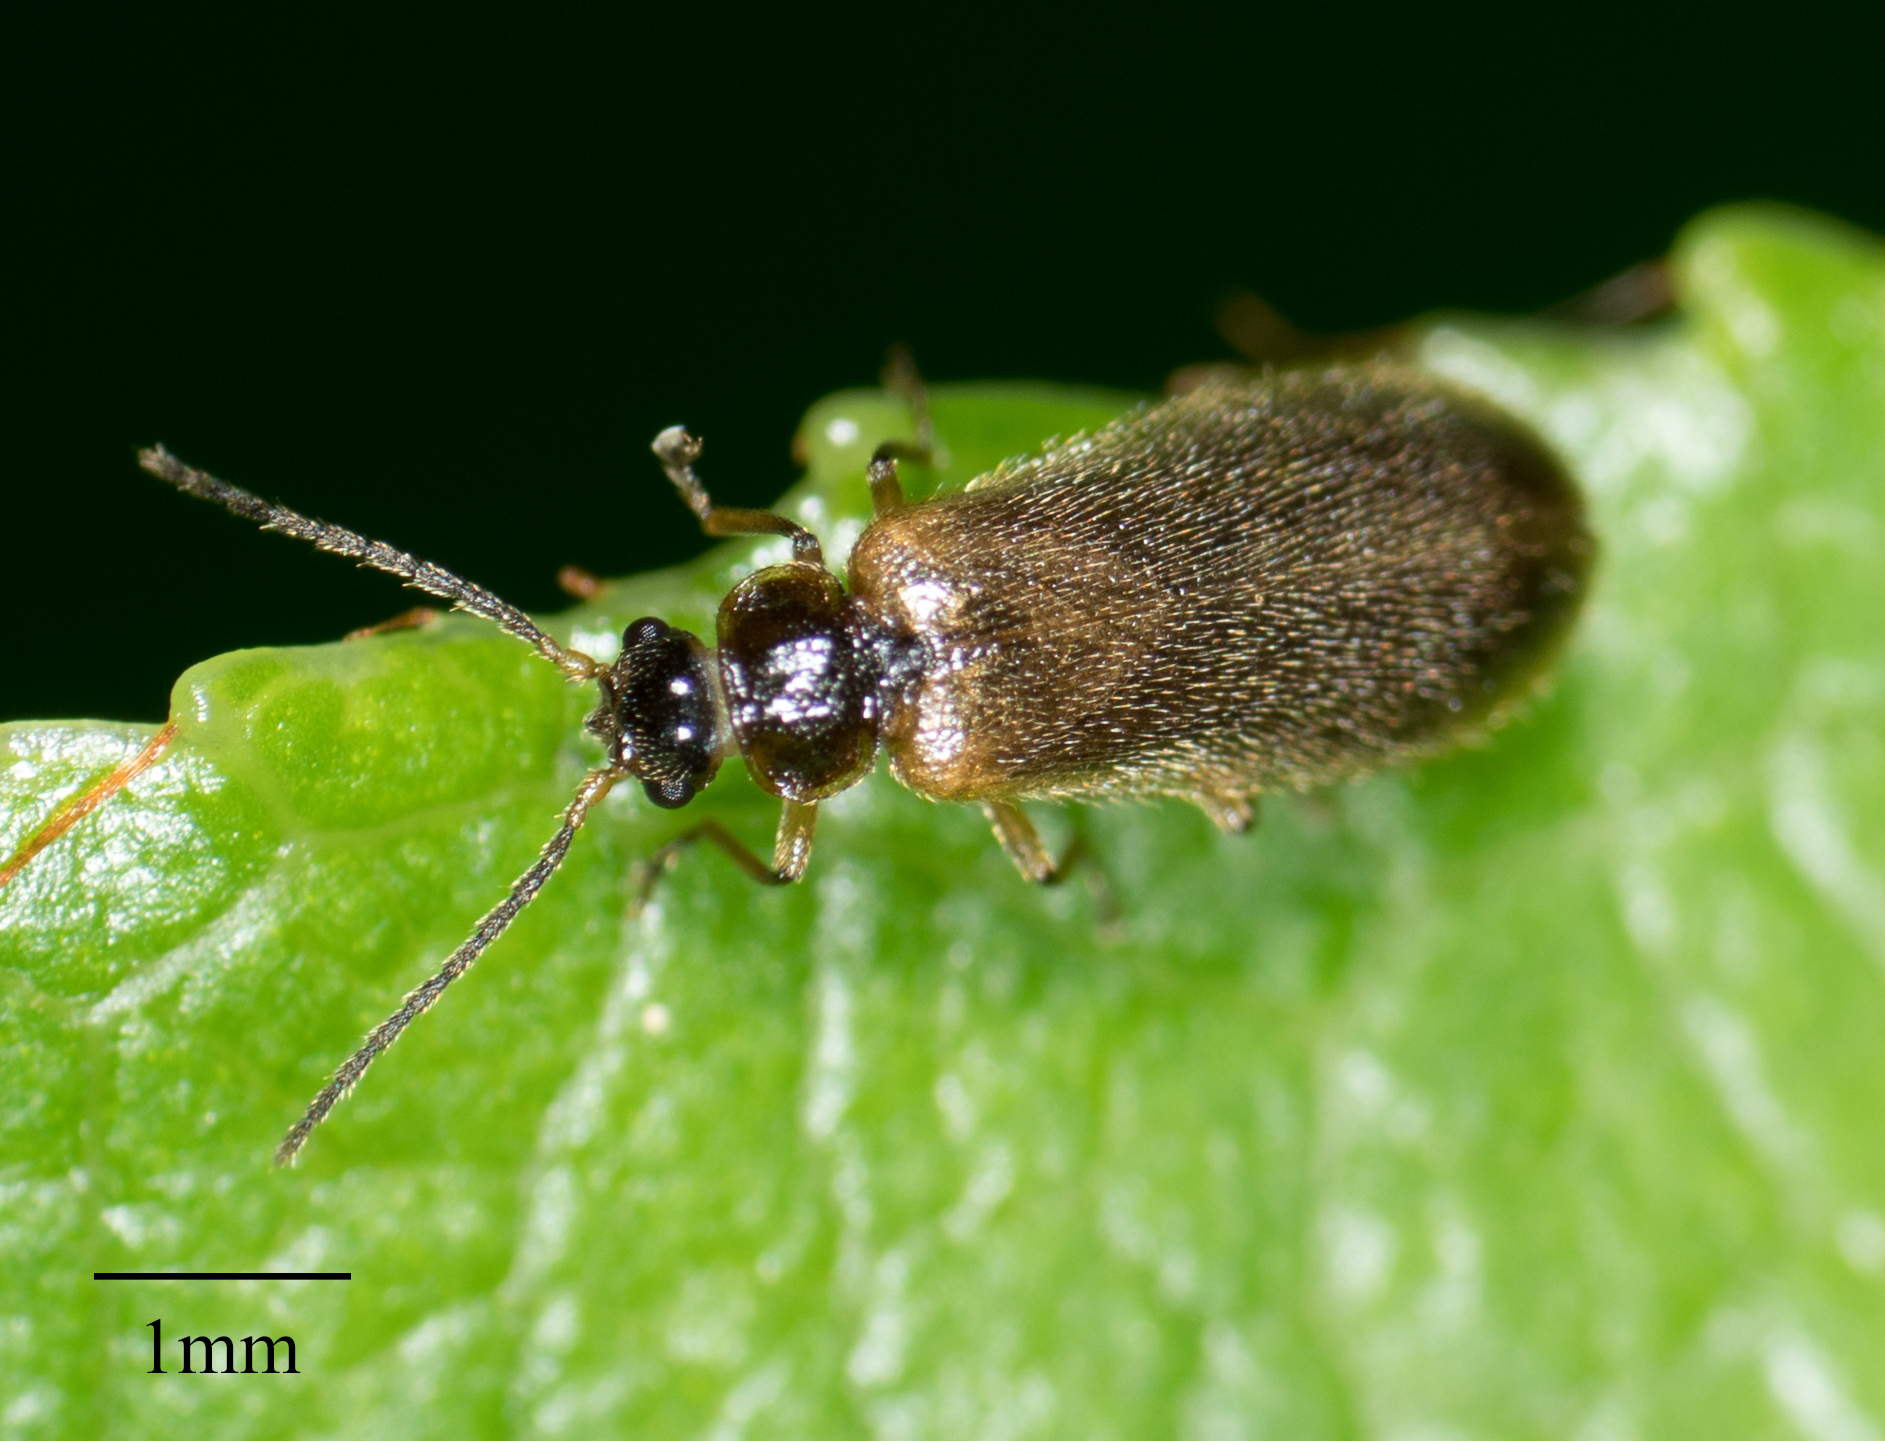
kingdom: Animalia
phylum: Arthropoda
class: Insecta
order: Coleoptera
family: Omethidae
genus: Troglomethes
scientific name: Troglomethes oregonensis
